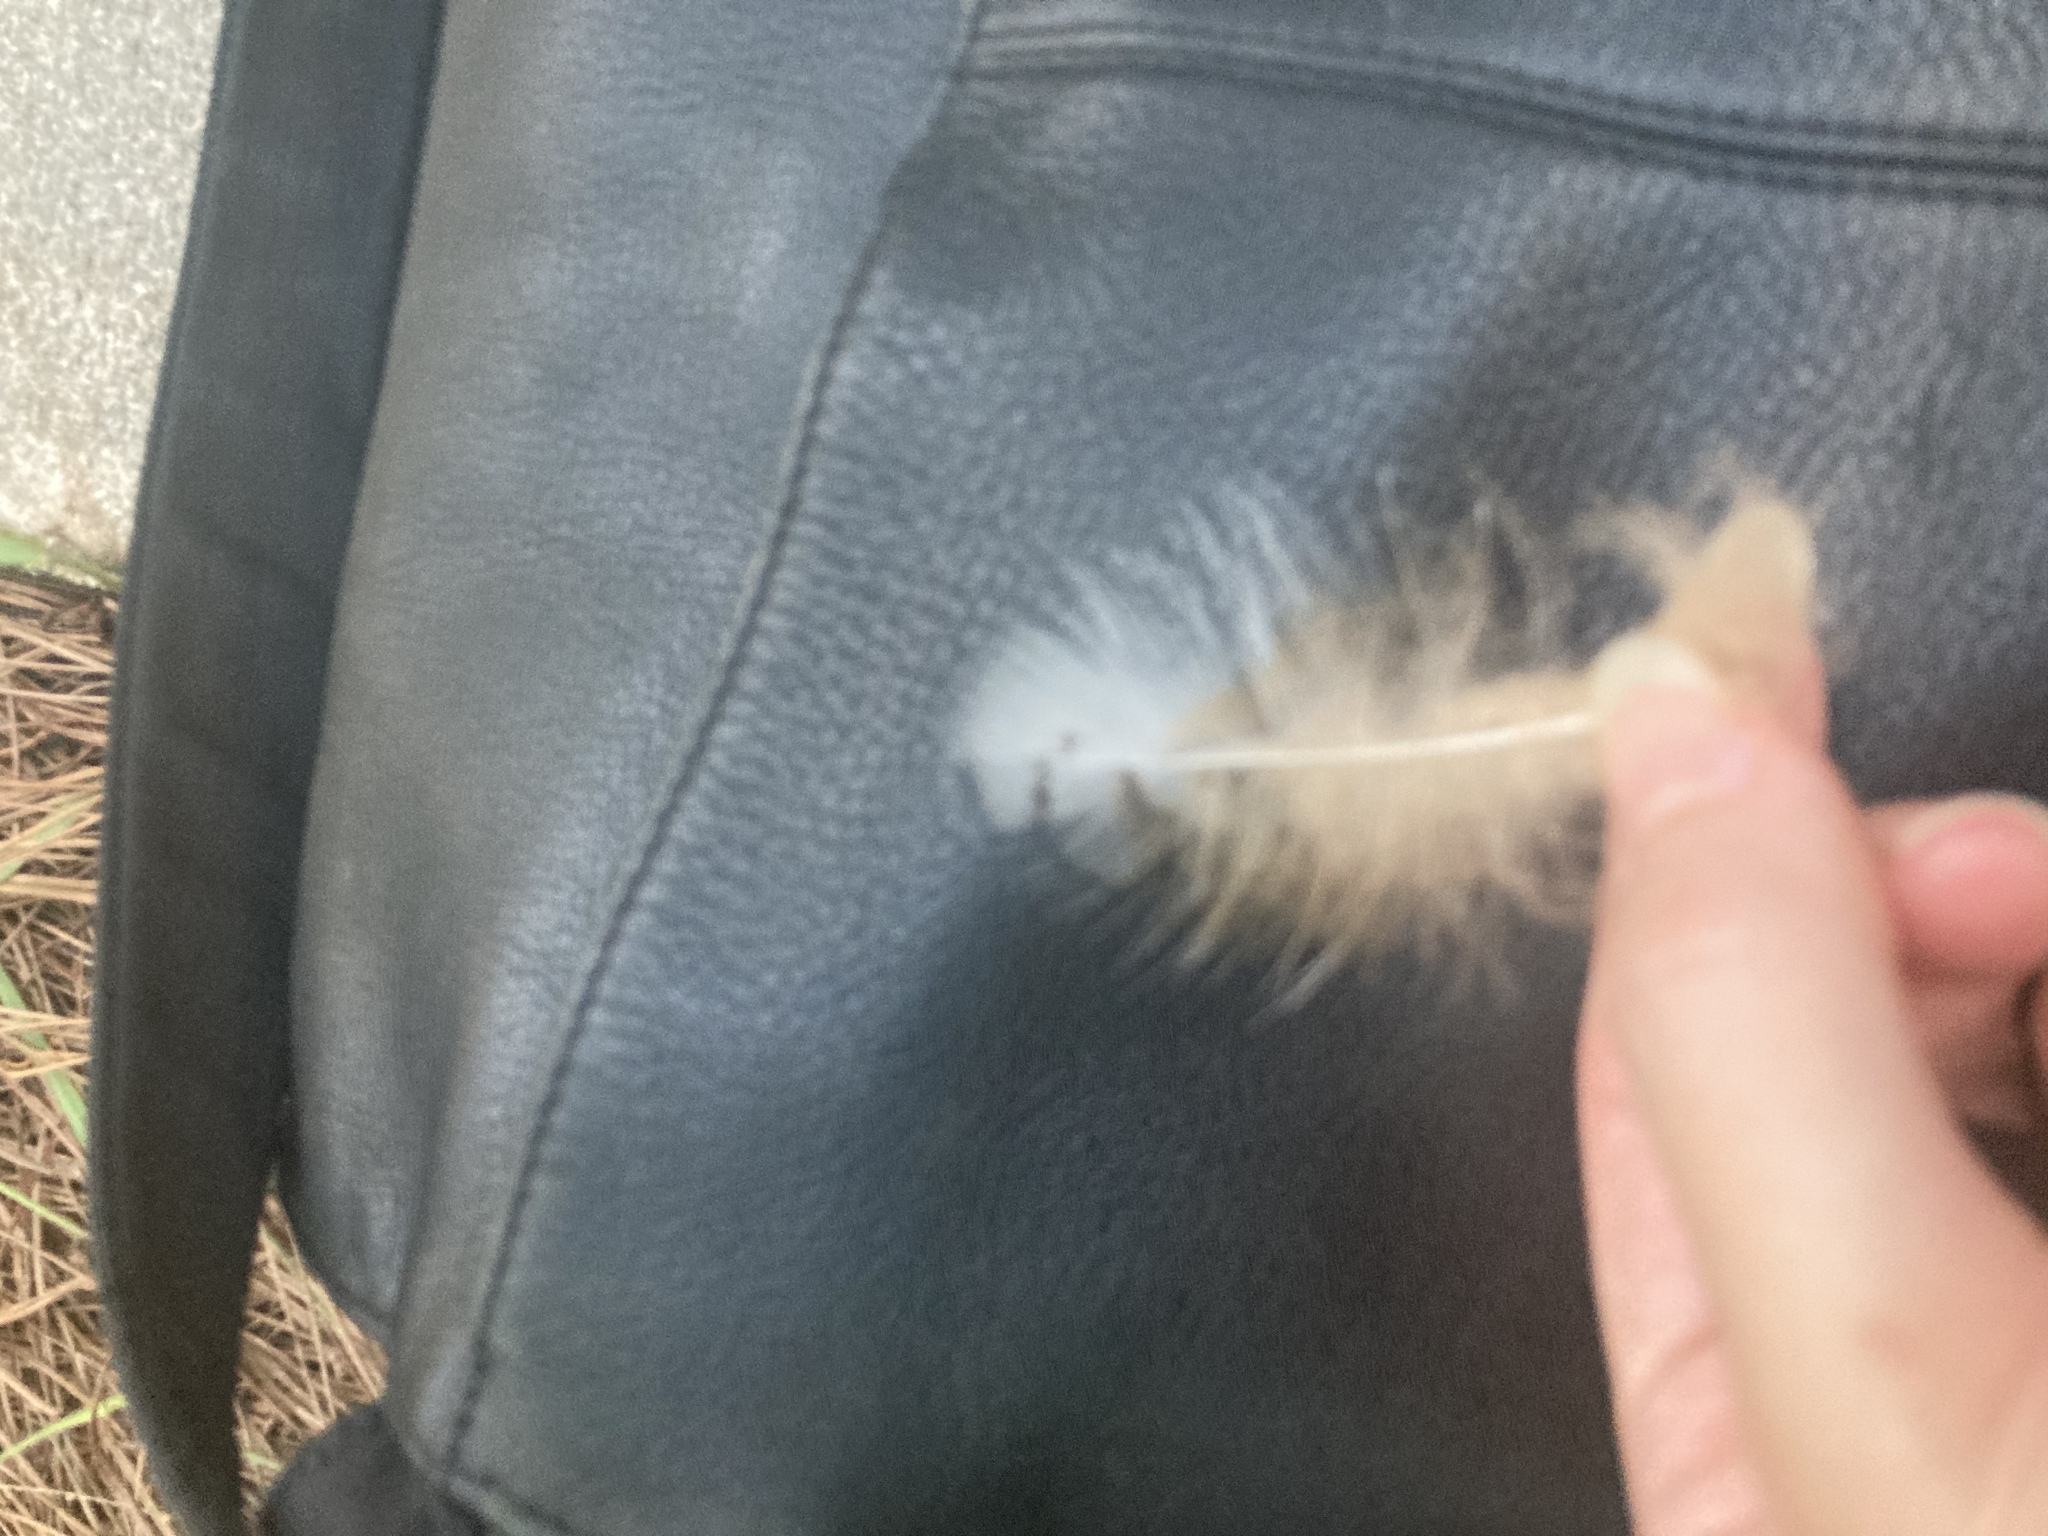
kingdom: Animalia
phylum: Chordata
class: Aves
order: Strigiformes
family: Strigidae
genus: Bubo
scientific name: Bubo virginianus
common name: Great horned owl
